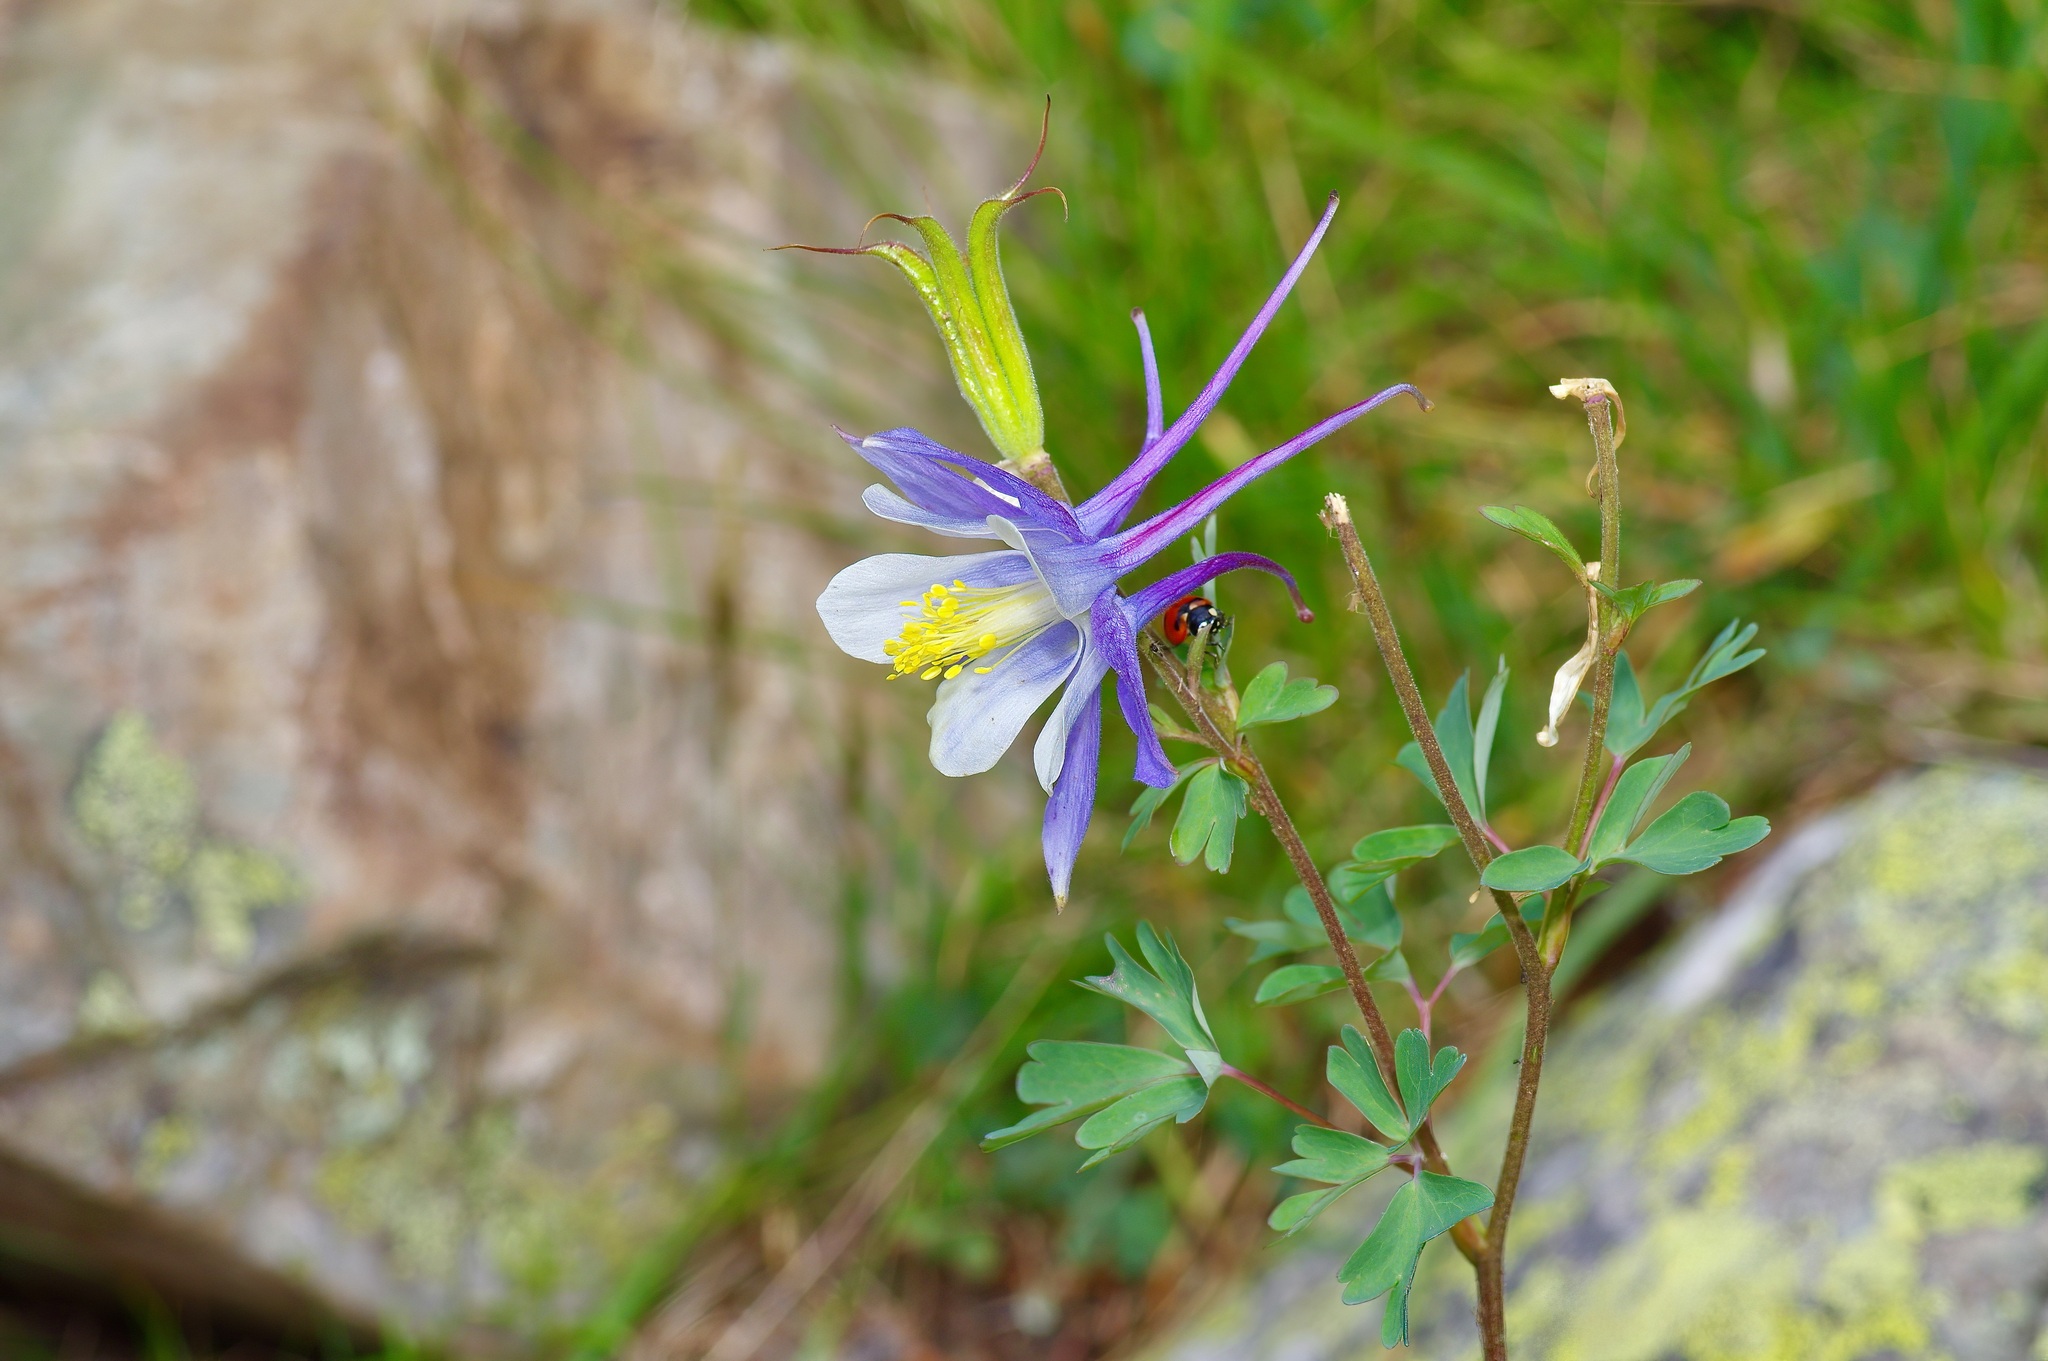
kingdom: Plantae
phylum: Tracheophyta
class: Magnoliopsida
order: Ranunculales
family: Ranunculaceae
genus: Aquilegia
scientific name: Aquilegia coerulea
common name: Rocky mountain columbine
